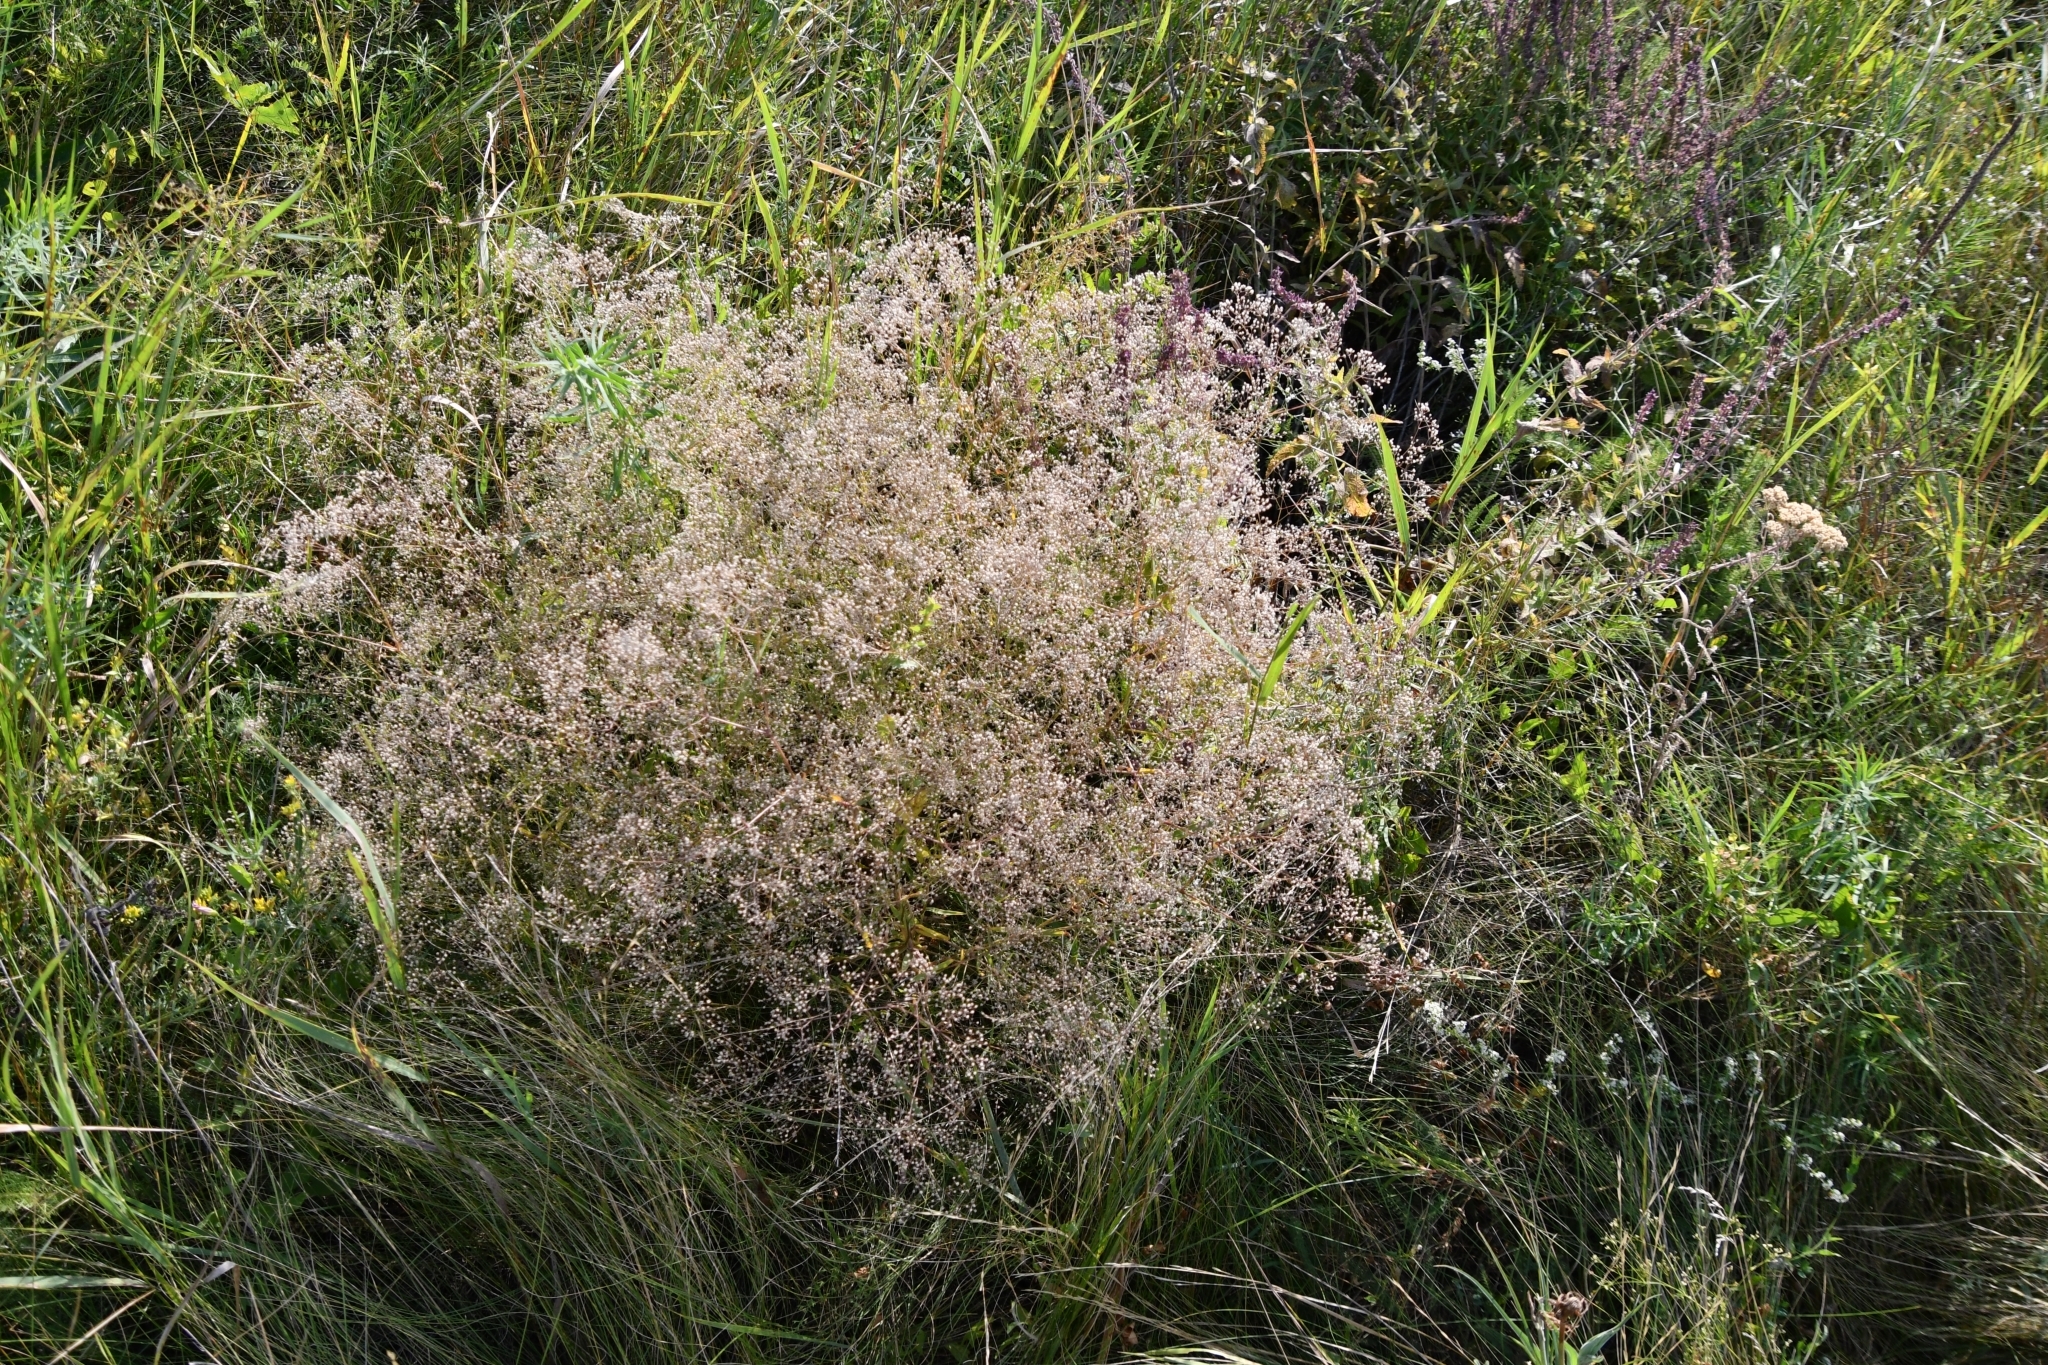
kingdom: Plantae
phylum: Tracheophyta
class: Magnoliopsida
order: Caryophyllales
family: Caryophyllaceae
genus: Gypsophila
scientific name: Gypsophila paniculata
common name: Baby's-breath
